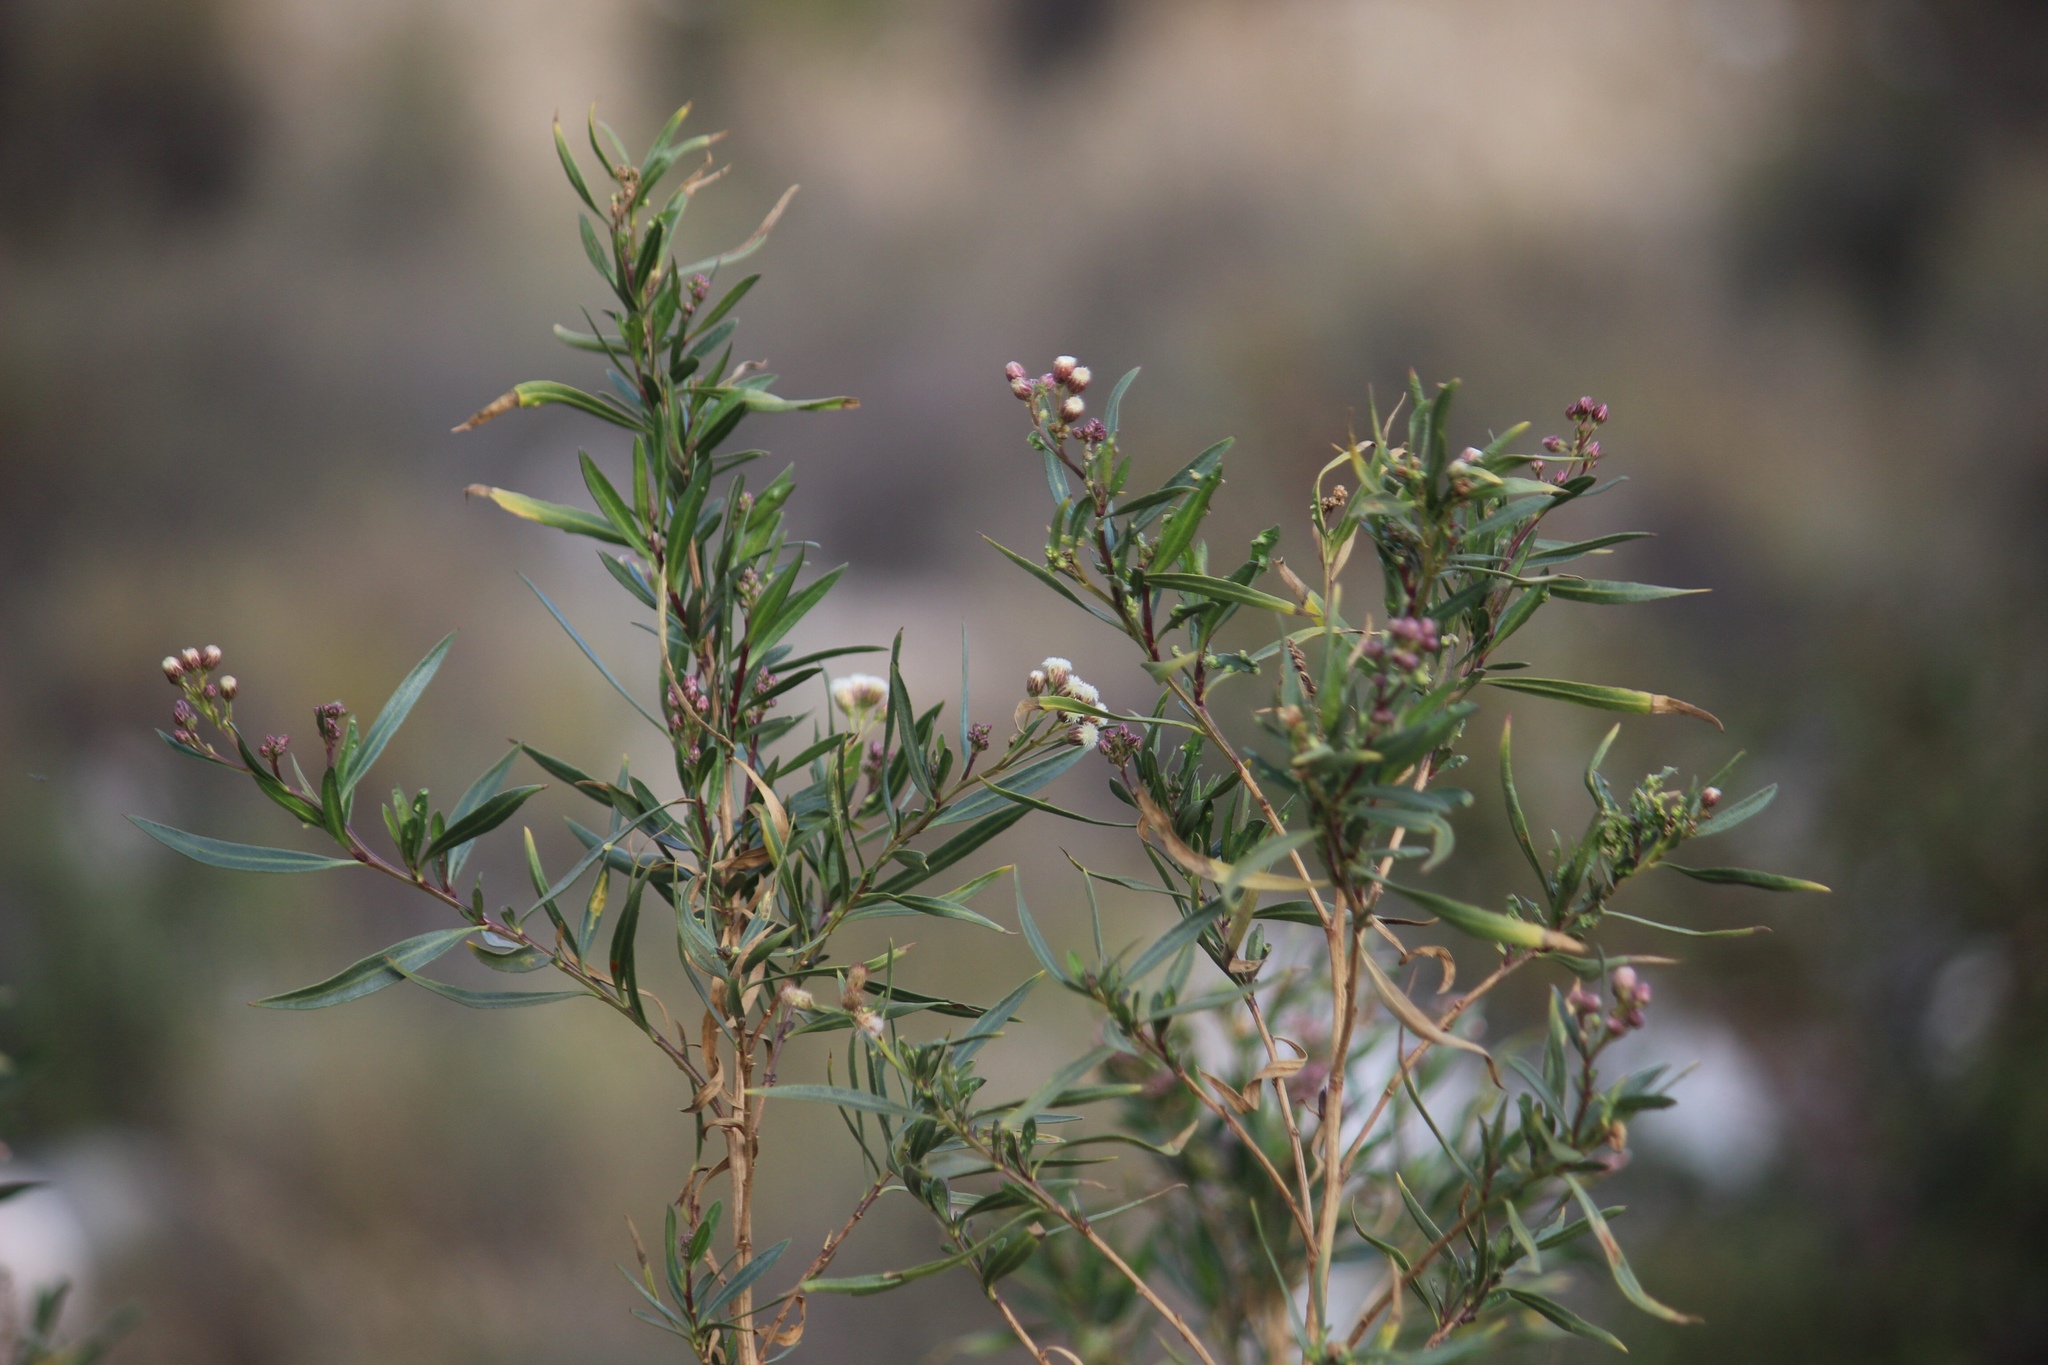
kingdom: Plantae
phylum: Tracheophyta
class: Magnoliopsida
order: Asterales
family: Asteraceae
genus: Baccharis
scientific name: Baccharis salicifolia
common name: Sticky baccharis
